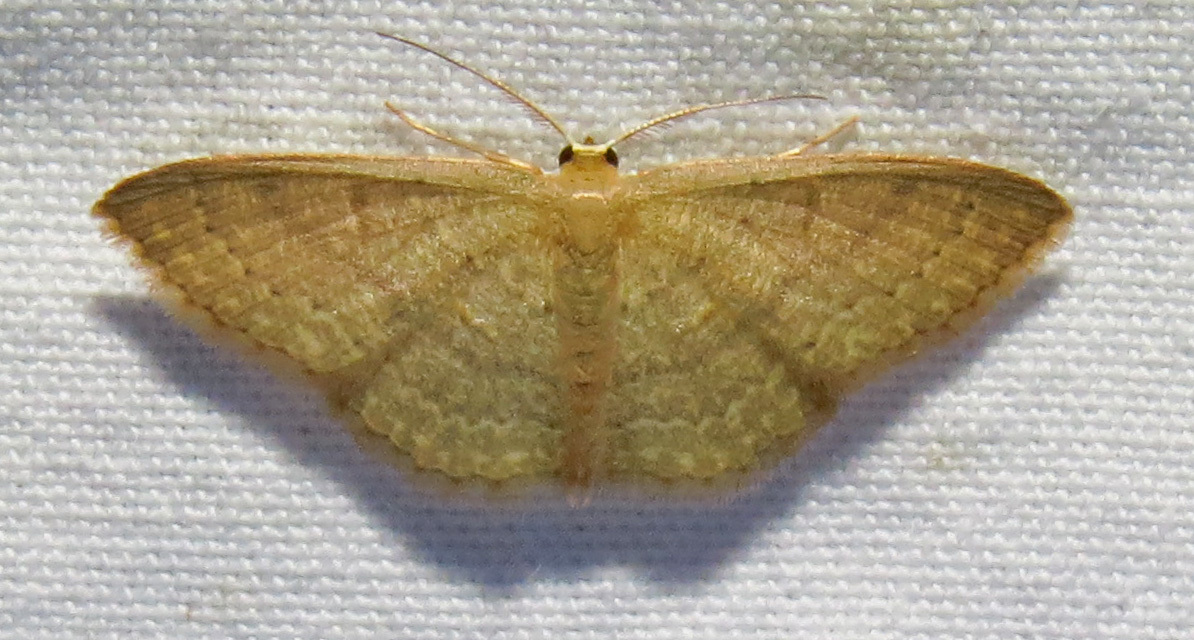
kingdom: Animalia
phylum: Arthropoda
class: Insecta
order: Lepidoptera
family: Geometridae
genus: Pleuroprucha
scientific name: Pleuroprucha insulsaria
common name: Common tan wave
